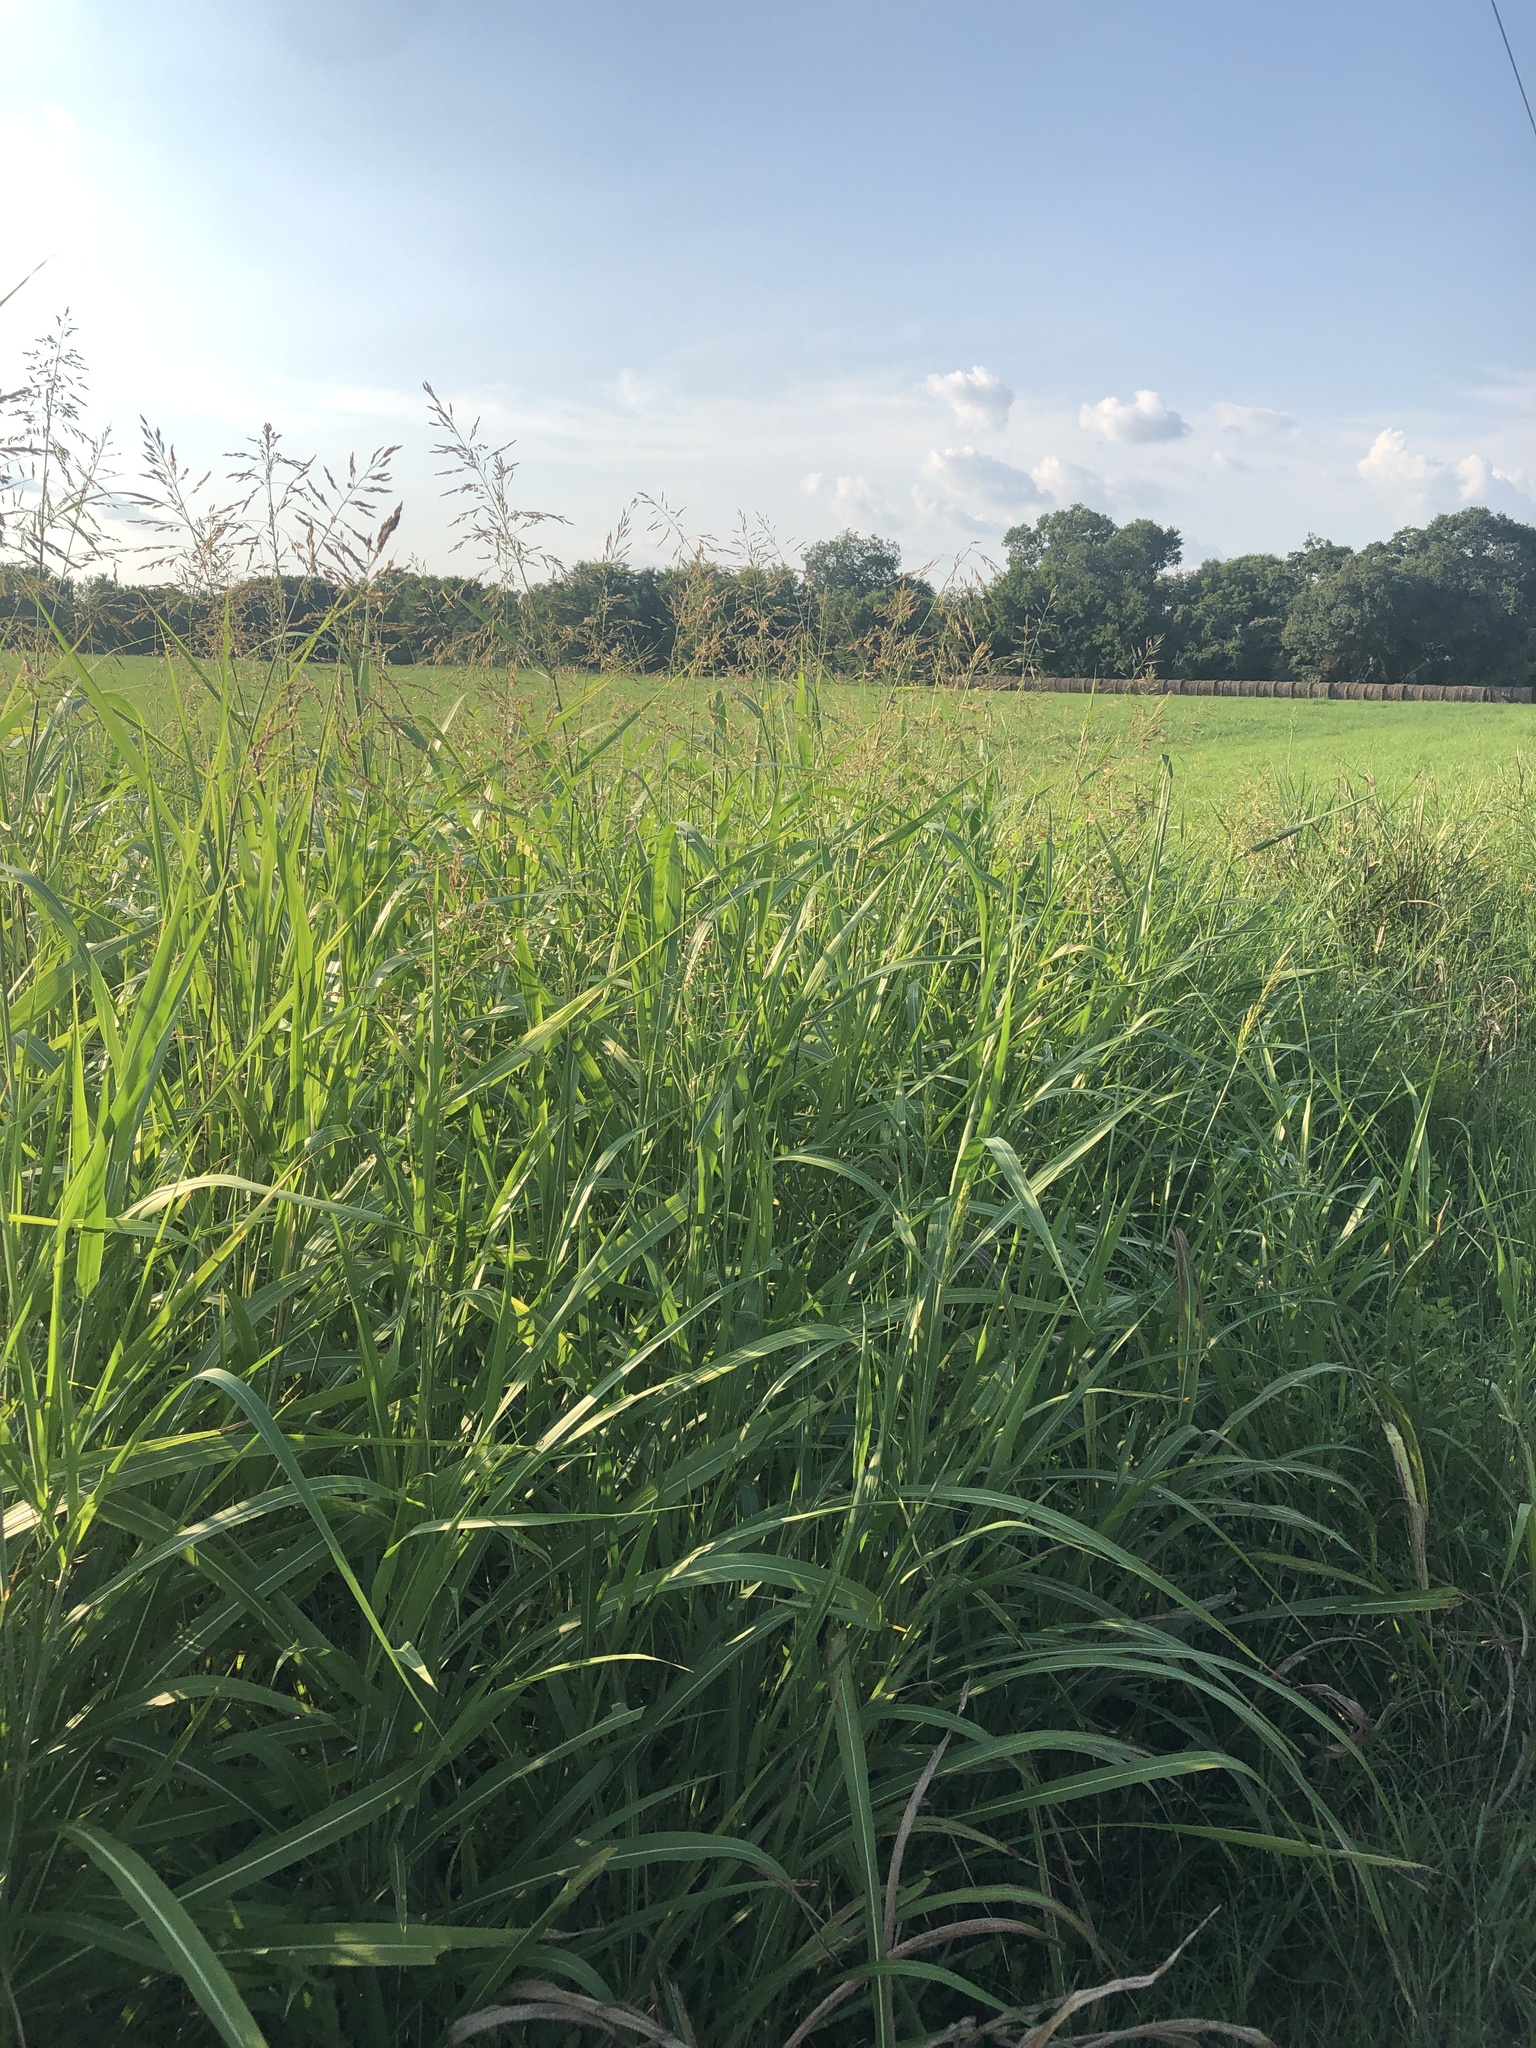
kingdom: Plantae
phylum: Tracheophyta
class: Liliopsida
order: Poales
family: Poaceae
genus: Sorghum
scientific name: Sorghum halepense
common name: Johnson-grass
